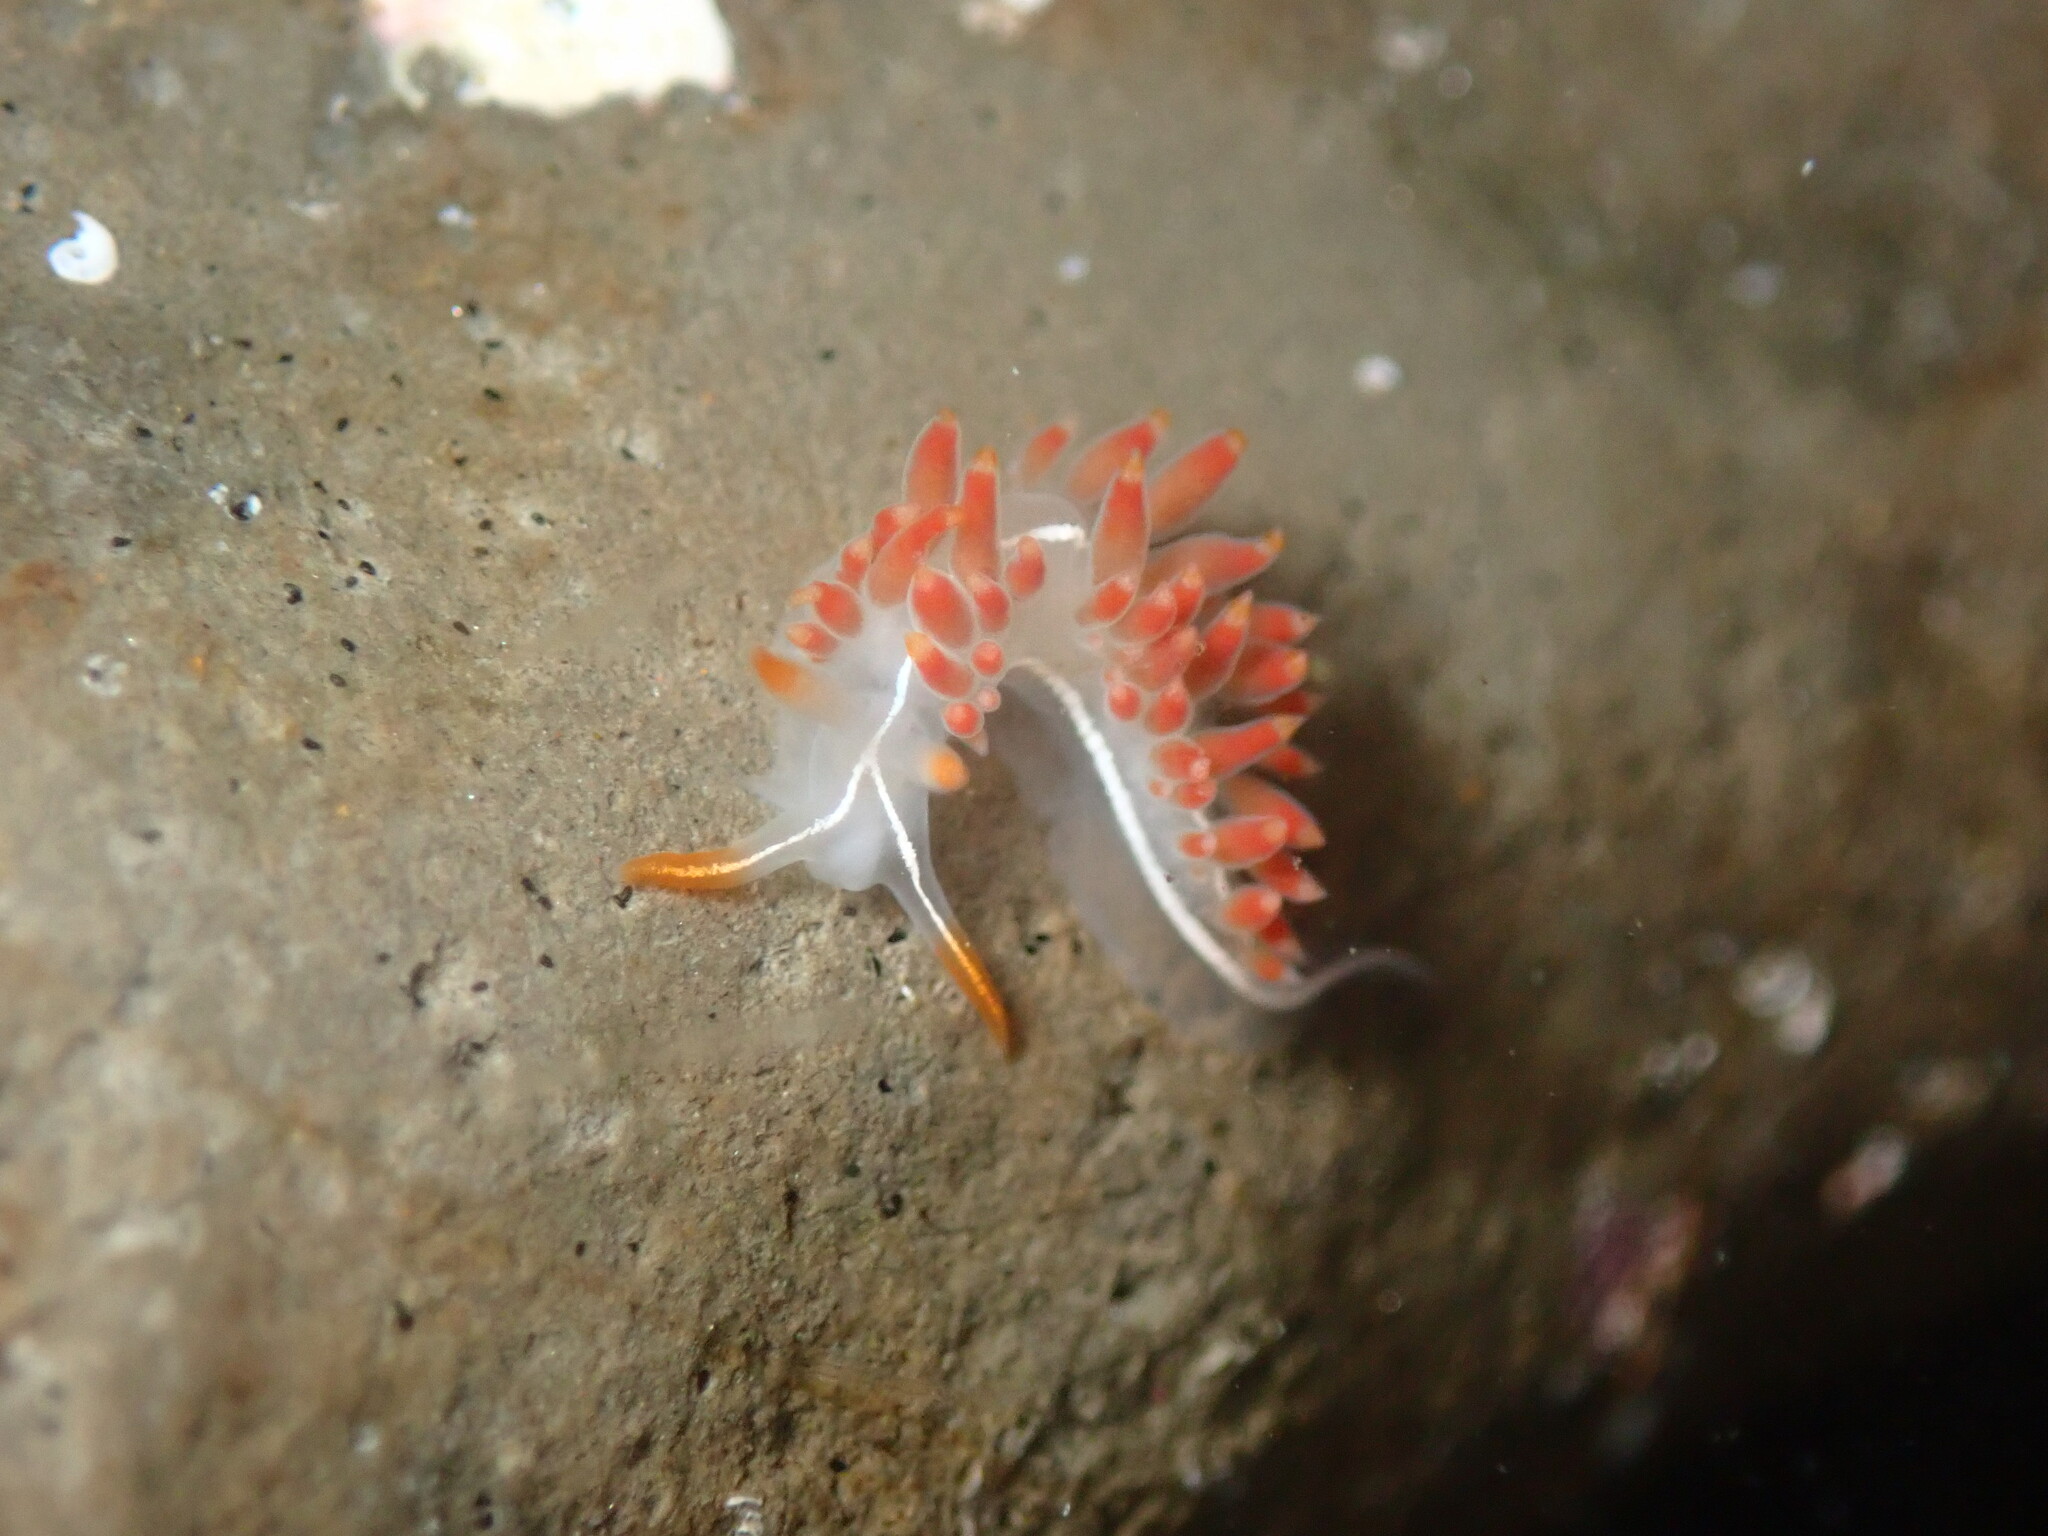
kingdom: Animalia
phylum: Mollusca
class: Gastropoda
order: Nudibranchia
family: Coryphellidae
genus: Coryphella
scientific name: Coryphella trilineata
